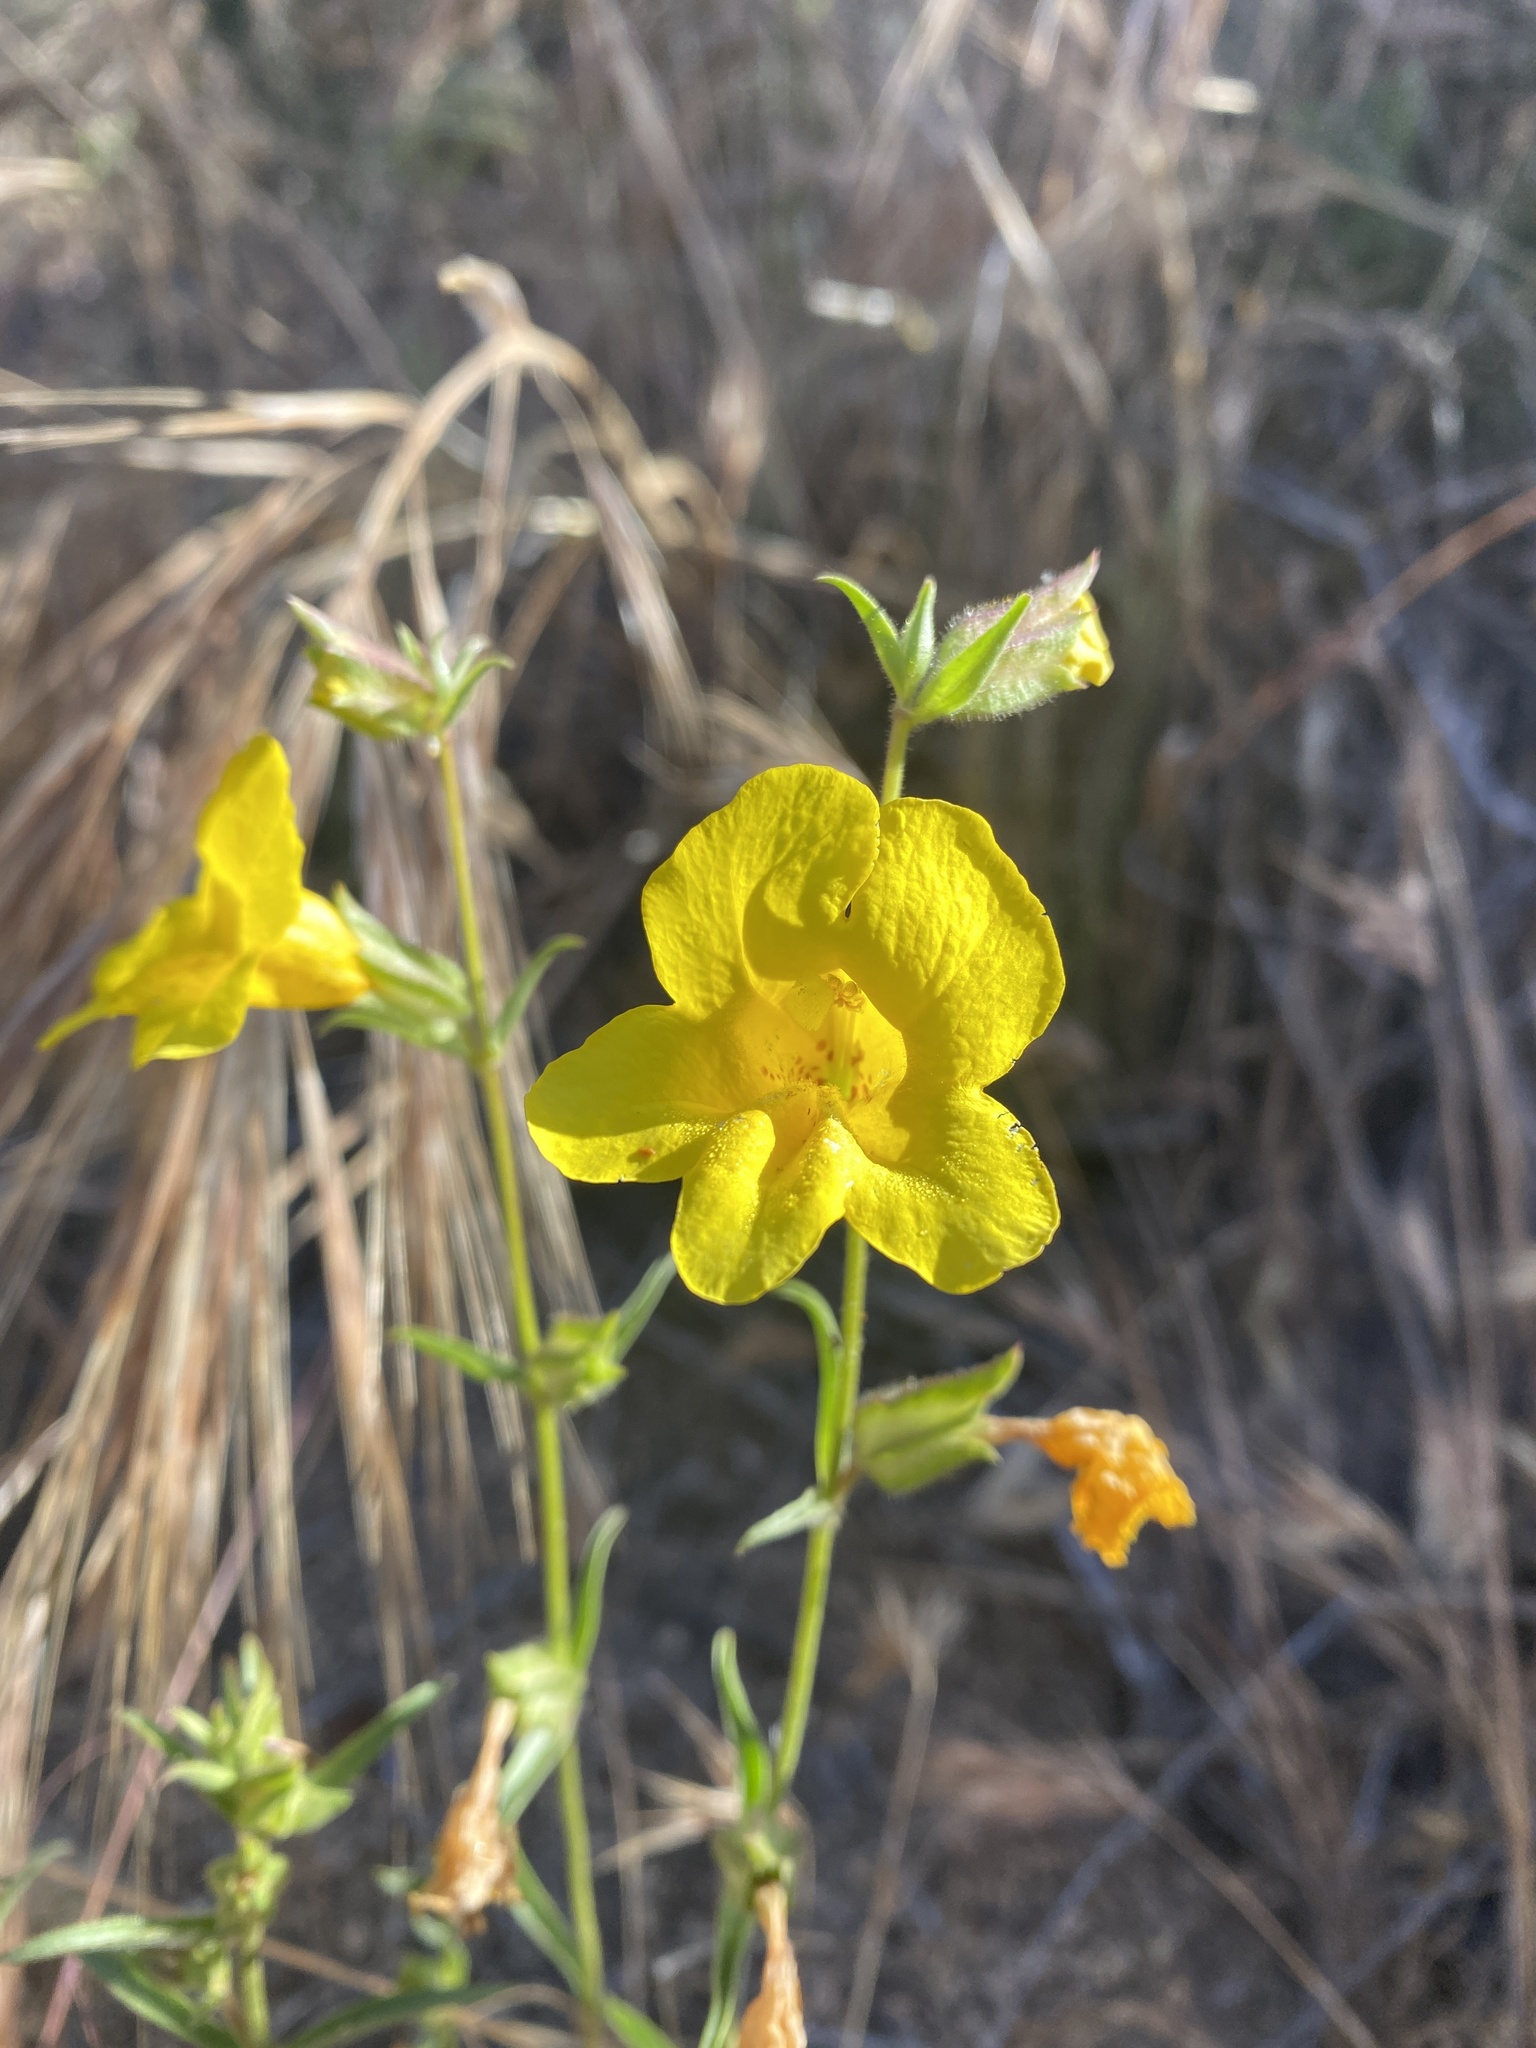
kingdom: Plantae
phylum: Tracheophyta
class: Magnoliopsida
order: Lamiales
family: Phrymaceae
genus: Diplacus
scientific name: Diplacus brevipes
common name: Wide-throat yellow monkey-flower
